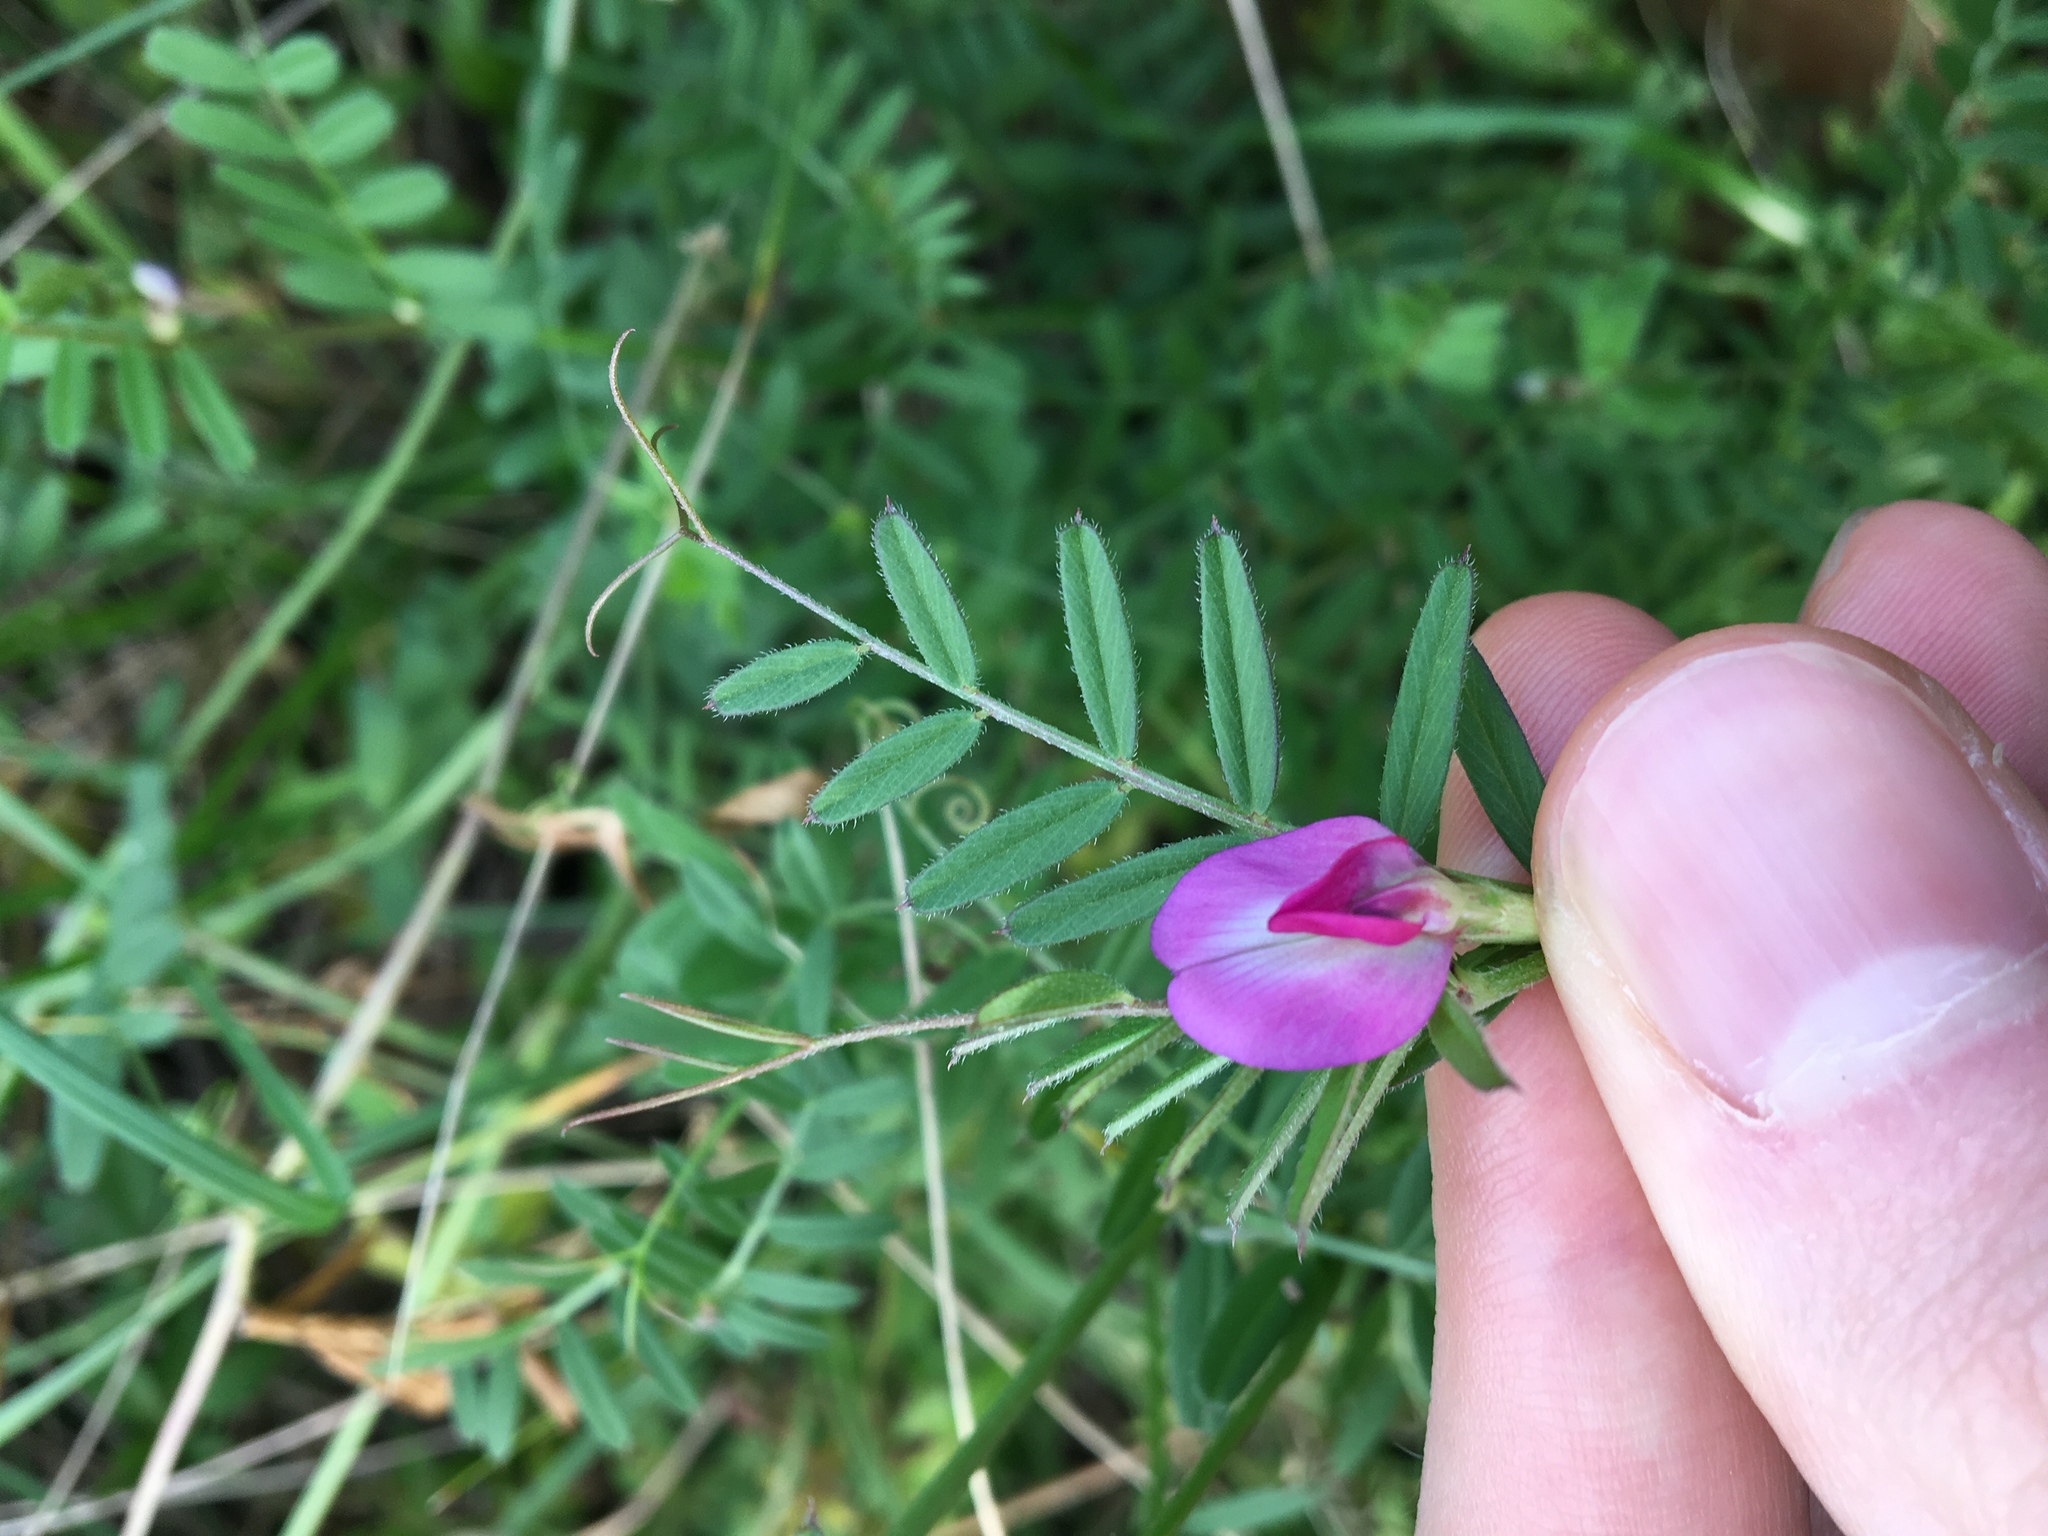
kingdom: Plantae
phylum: Tracheophyta
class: Magnoliopsida
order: Fabales
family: Fabaceae
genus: Vicia
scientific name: Vicia sativa
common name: Garden vetch
